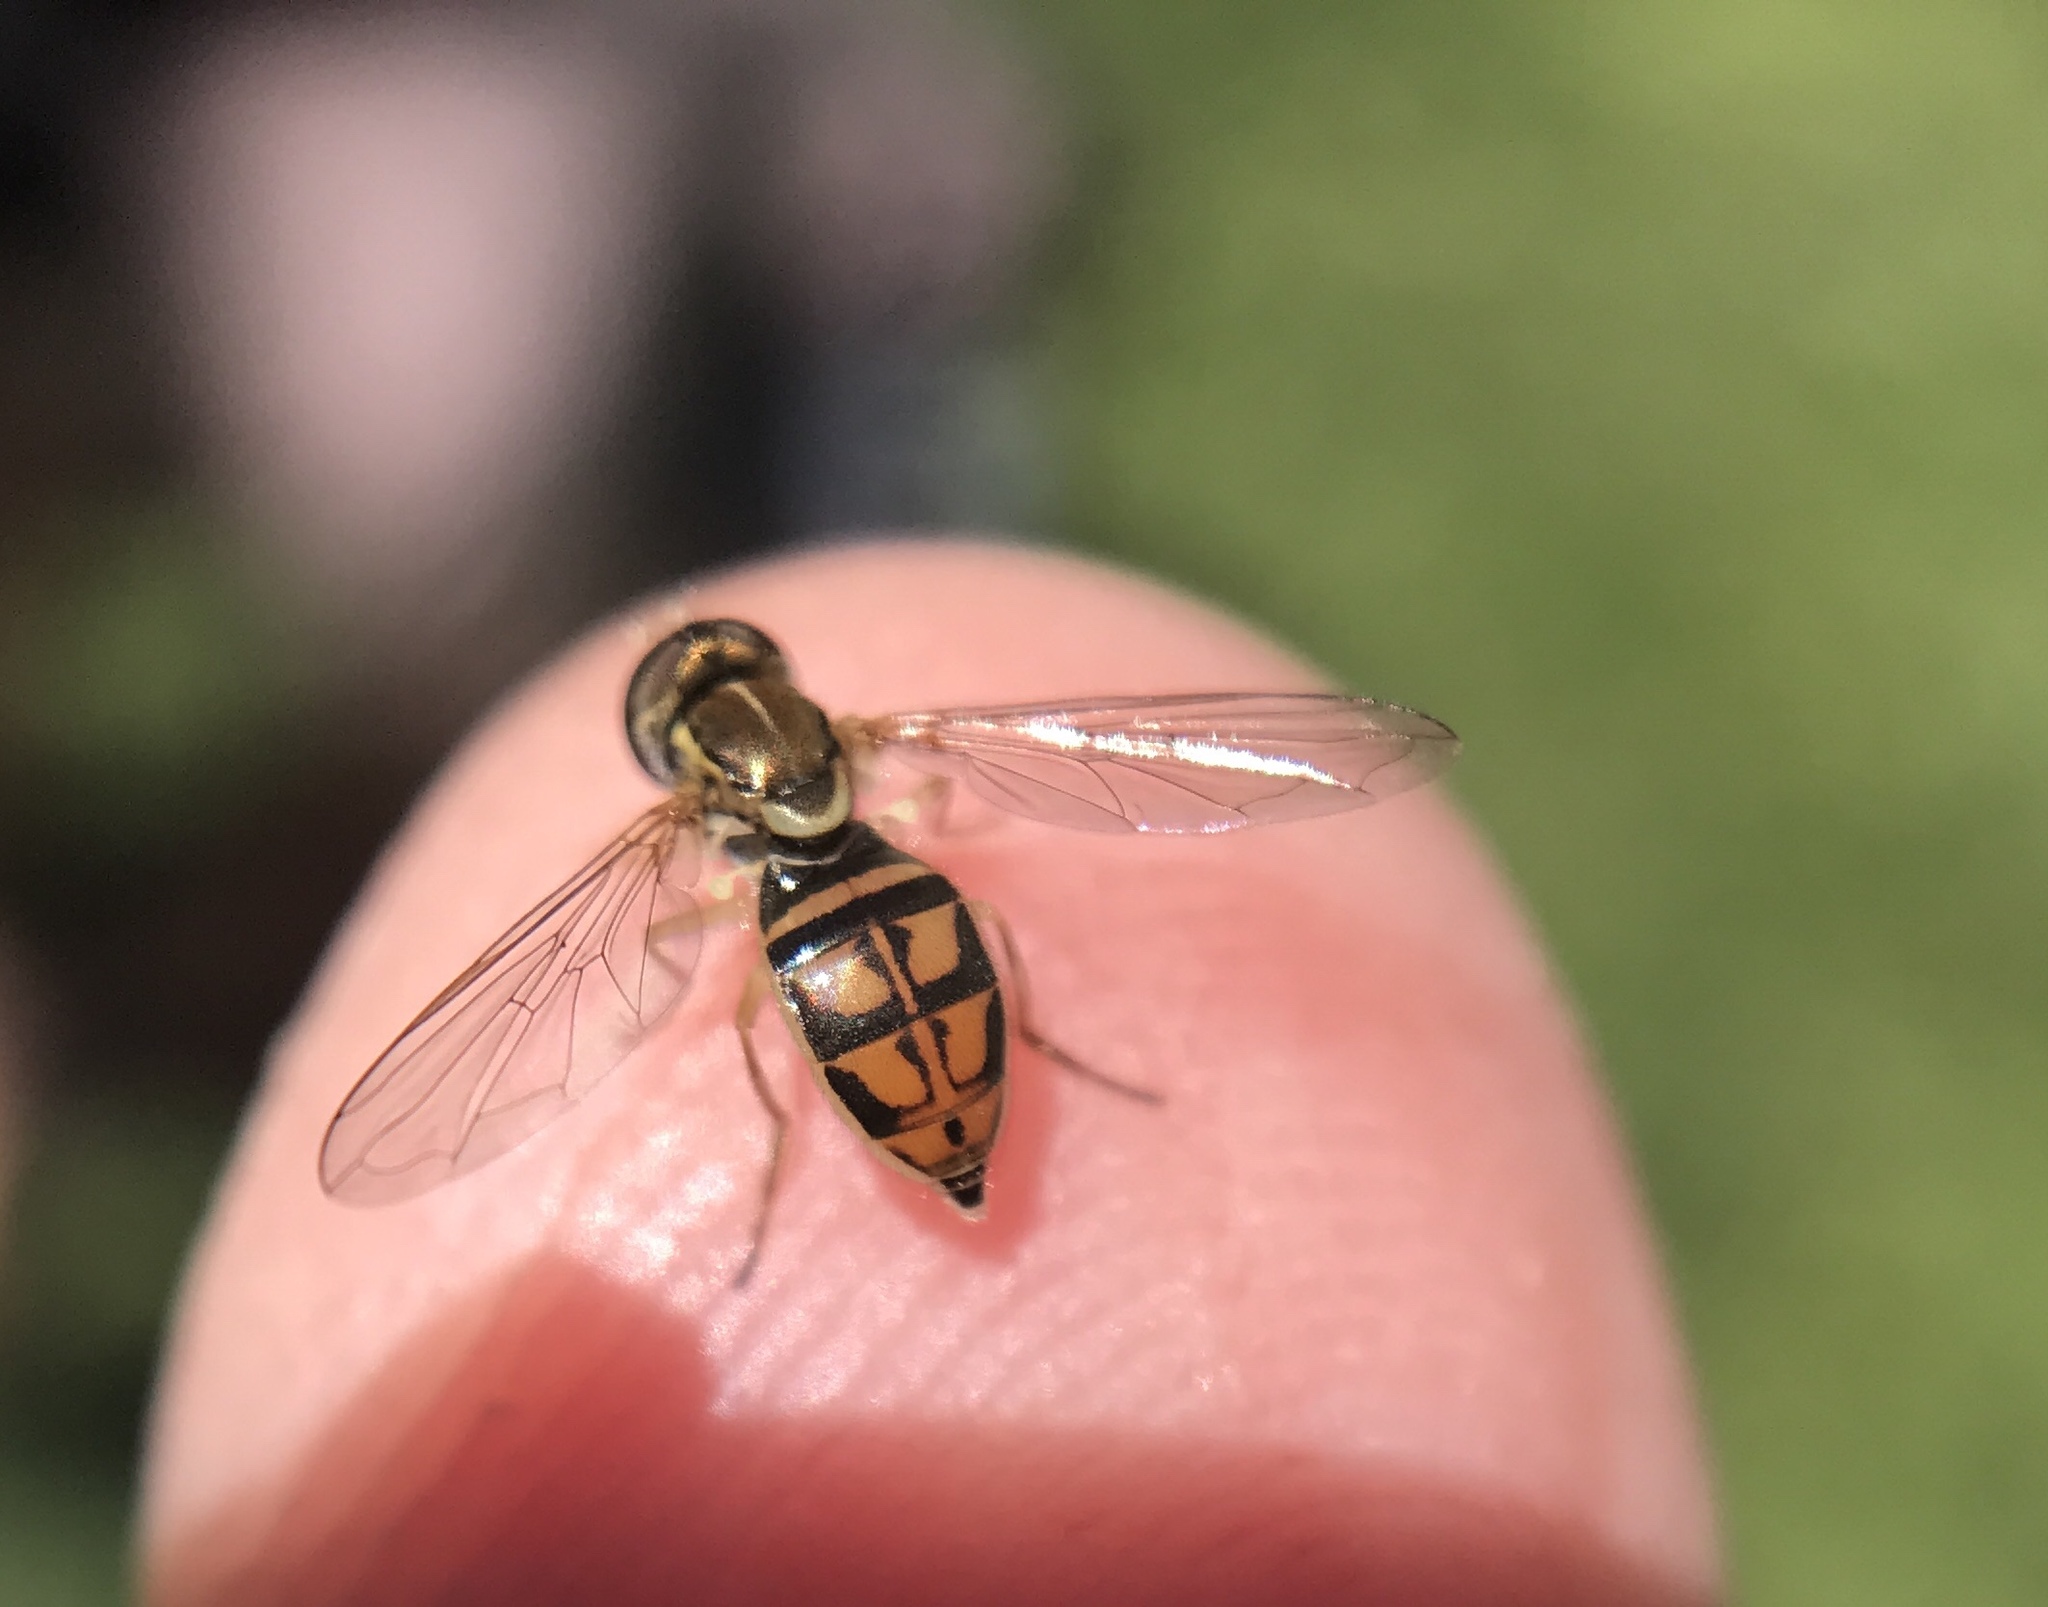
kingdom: Animalia
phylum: Arthropoda
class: Insecta
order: Diptera
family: Syrphidae
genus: Toxomerus
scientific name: Toxomerus marginatus
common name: Syrphid fly
